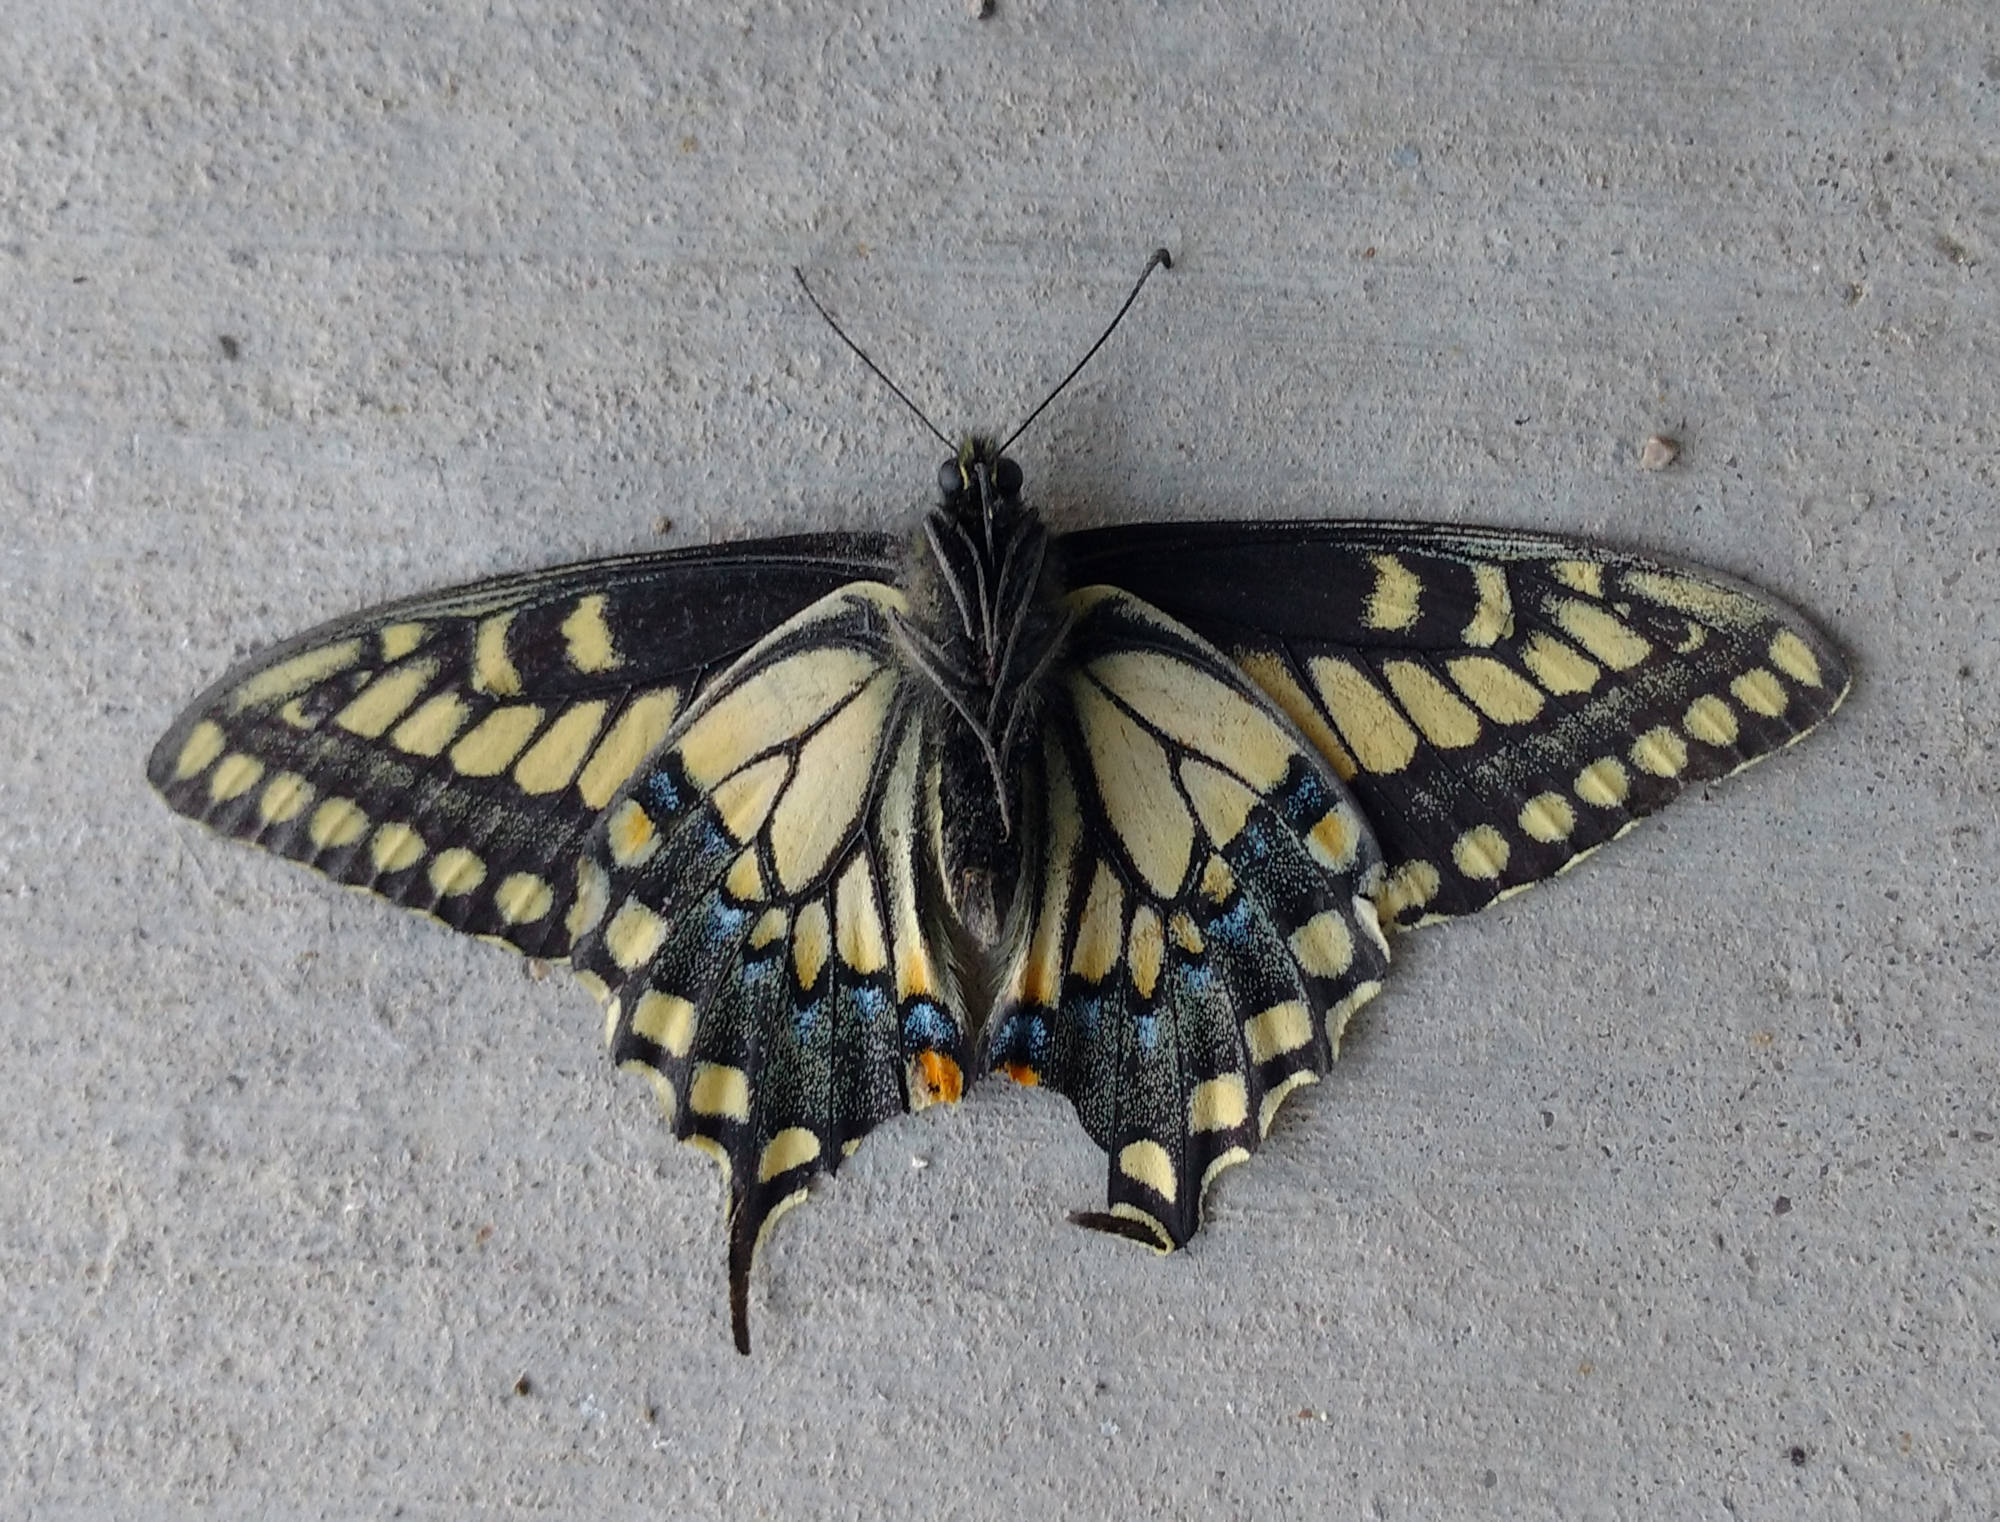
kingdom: Animalia
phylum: Arthropoda
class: Insecta
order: Lepidoptera
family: Papilionidae
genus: Papilio
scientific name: Papilio polyxenes
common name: Black swallowtail
